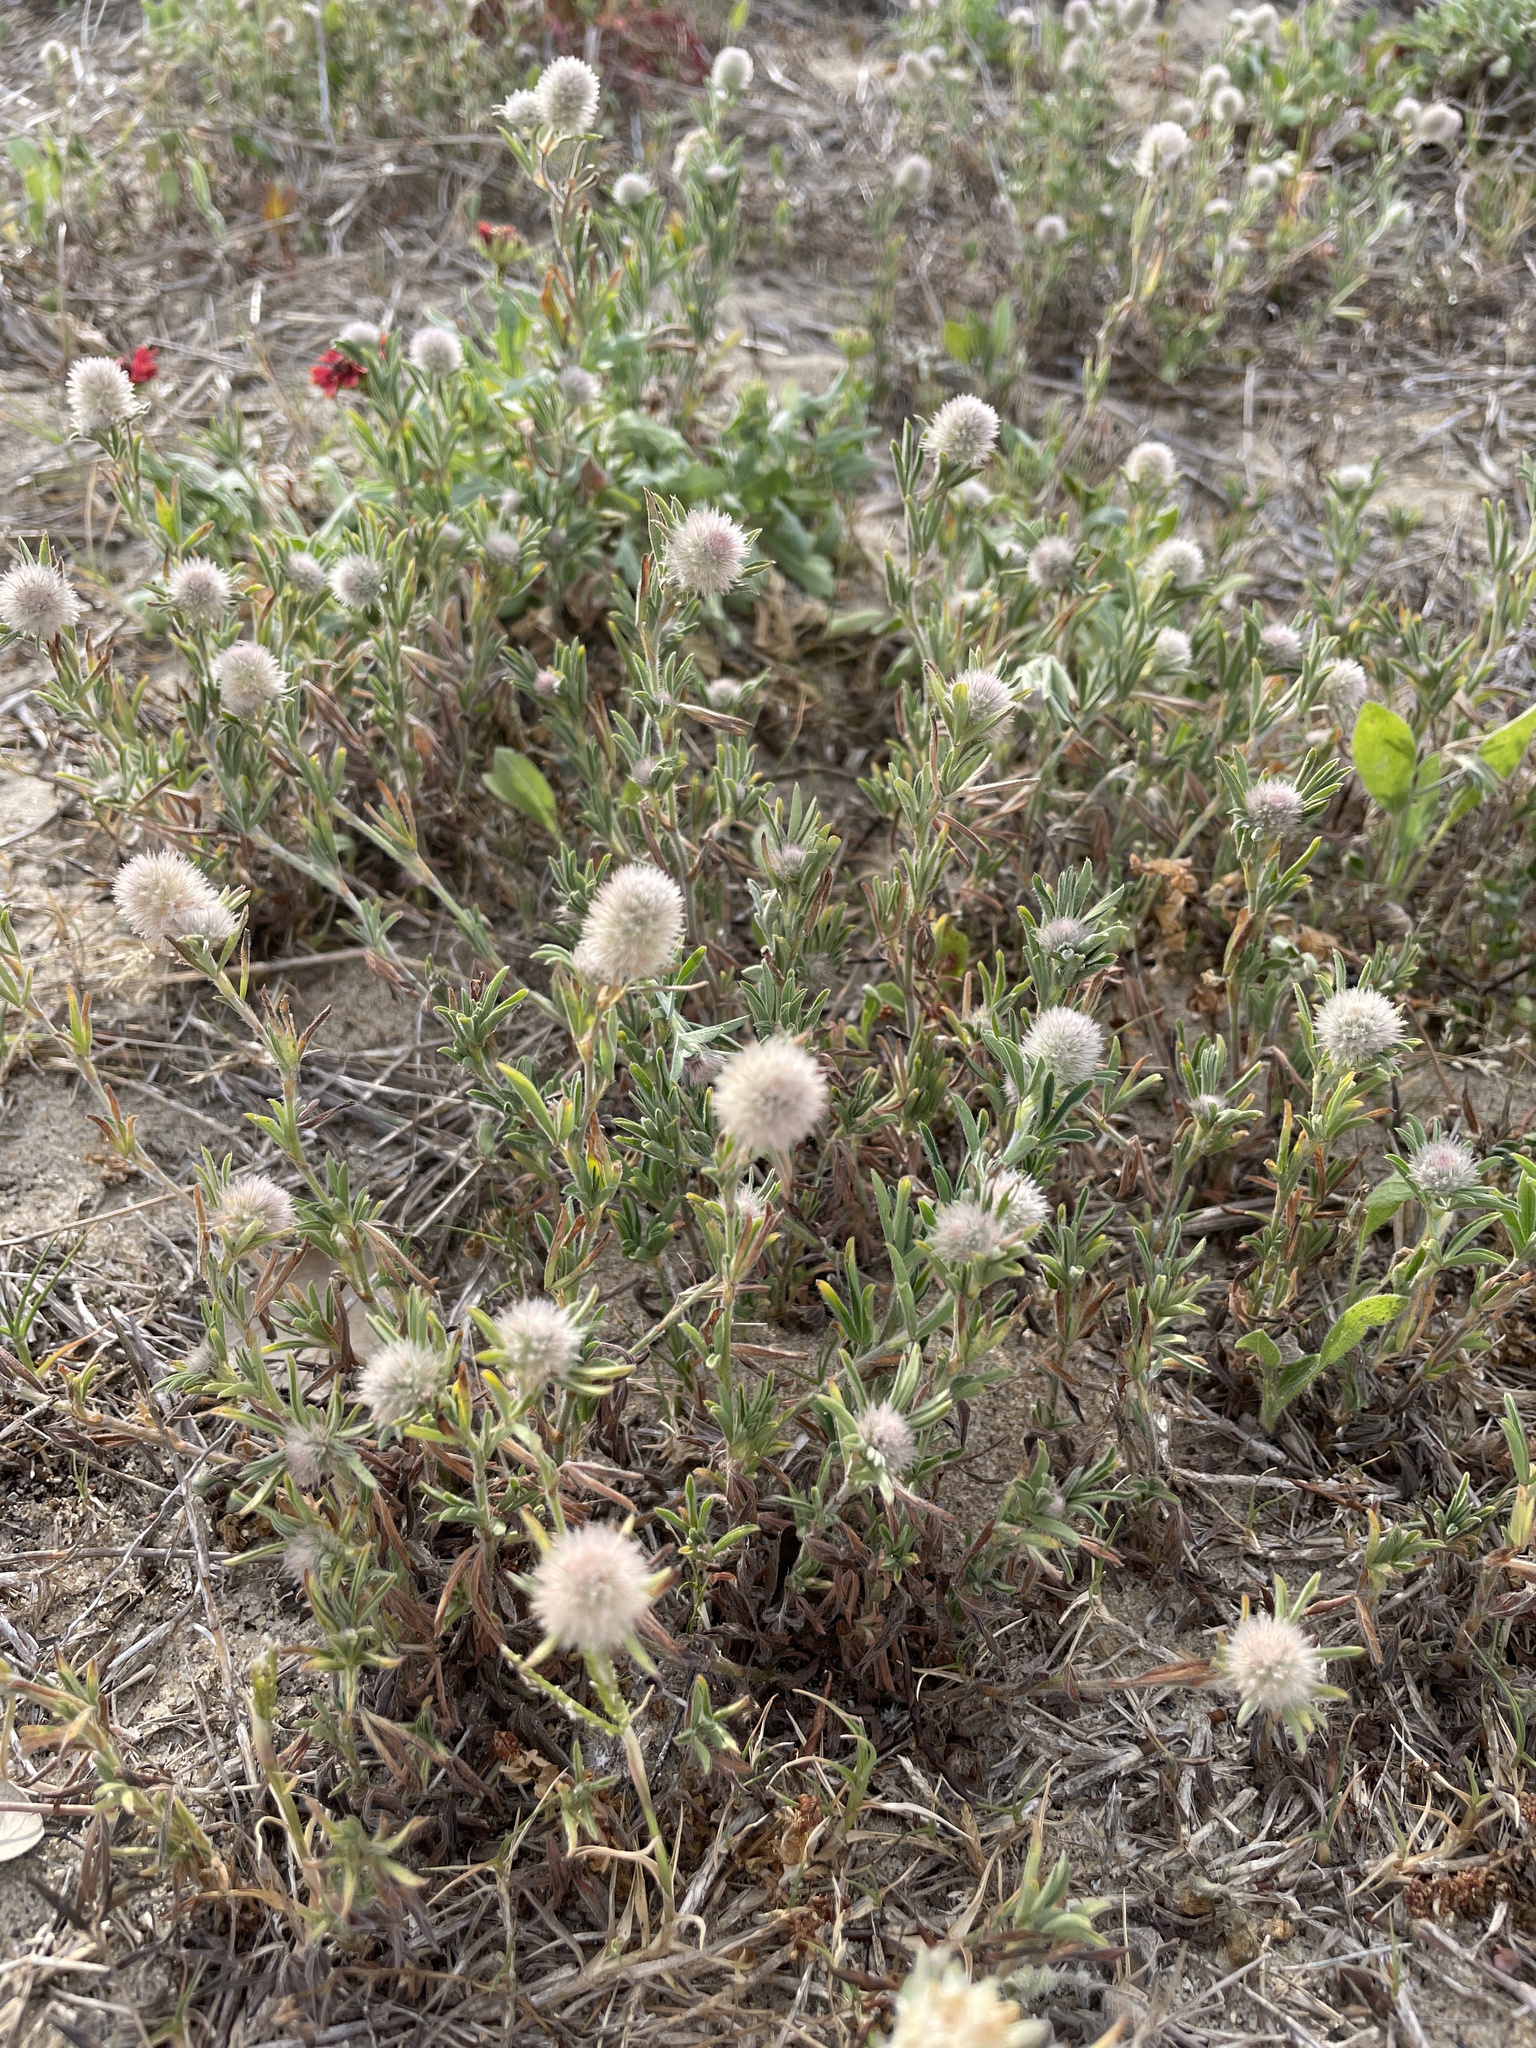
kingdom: Plantae
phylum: Tracheophyta
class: Magnoliopsida
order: Fabales
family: Fabaceae
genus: Trifolium
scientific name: Trifolium arvense
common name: Hare's-foot clover
